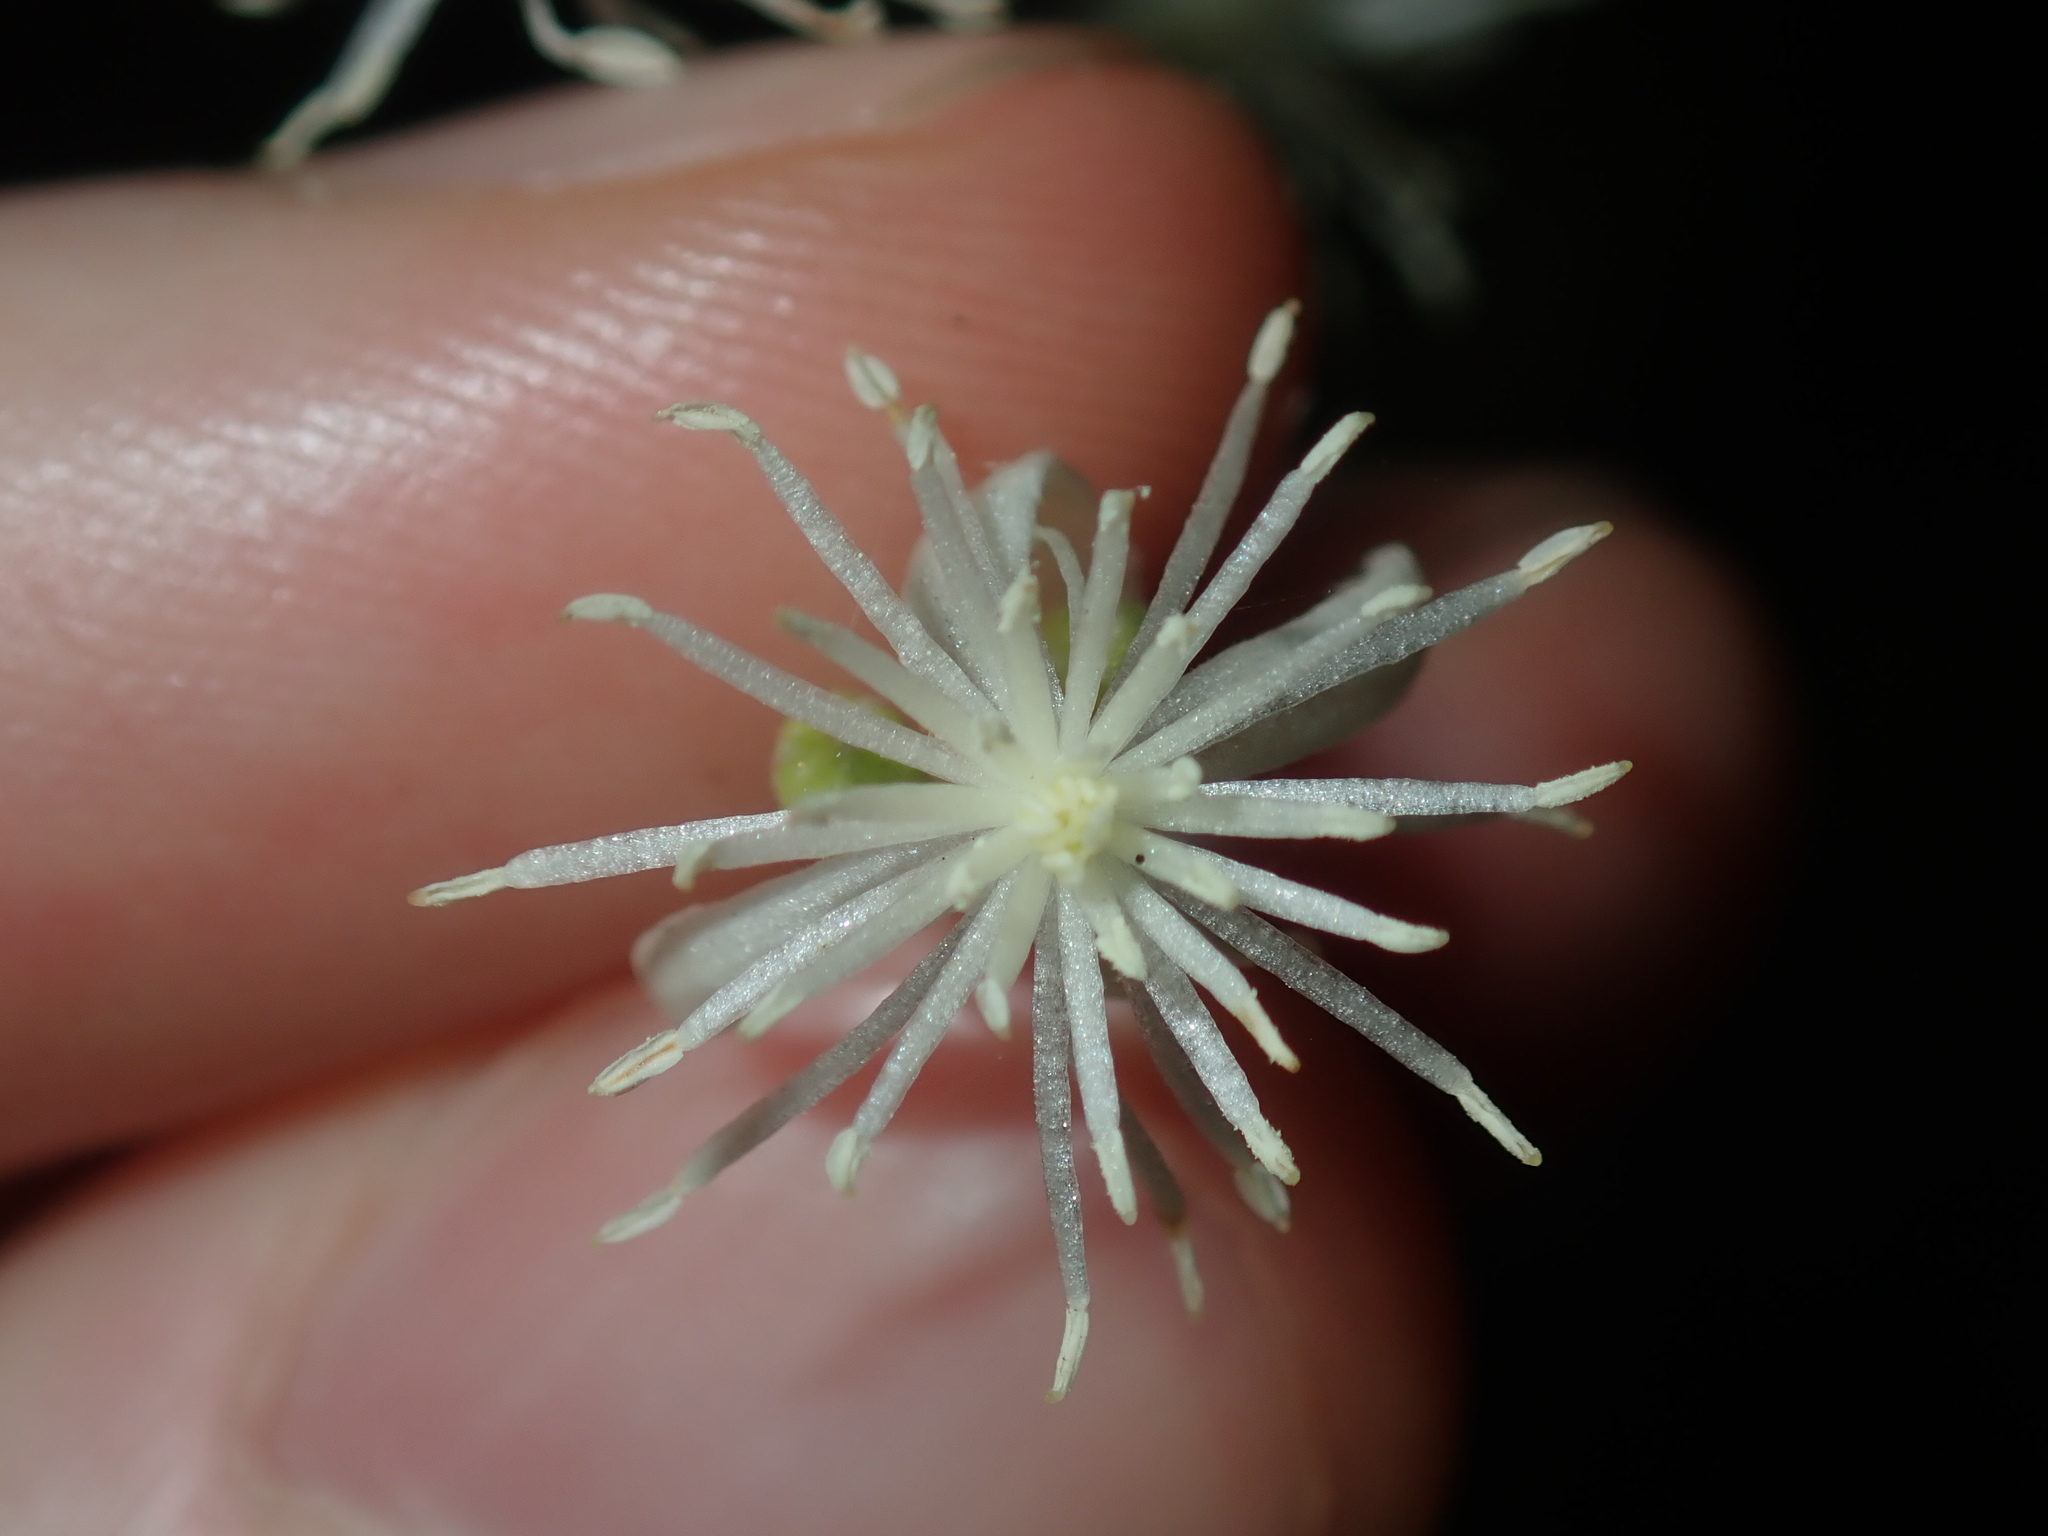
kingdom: Plantae
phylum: Tracheophyta
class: Magnoliopsida
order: Ranunculales
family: Ranunculaceae
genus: Clematis
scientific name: Clematis glycinoides
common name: Forest clematis
